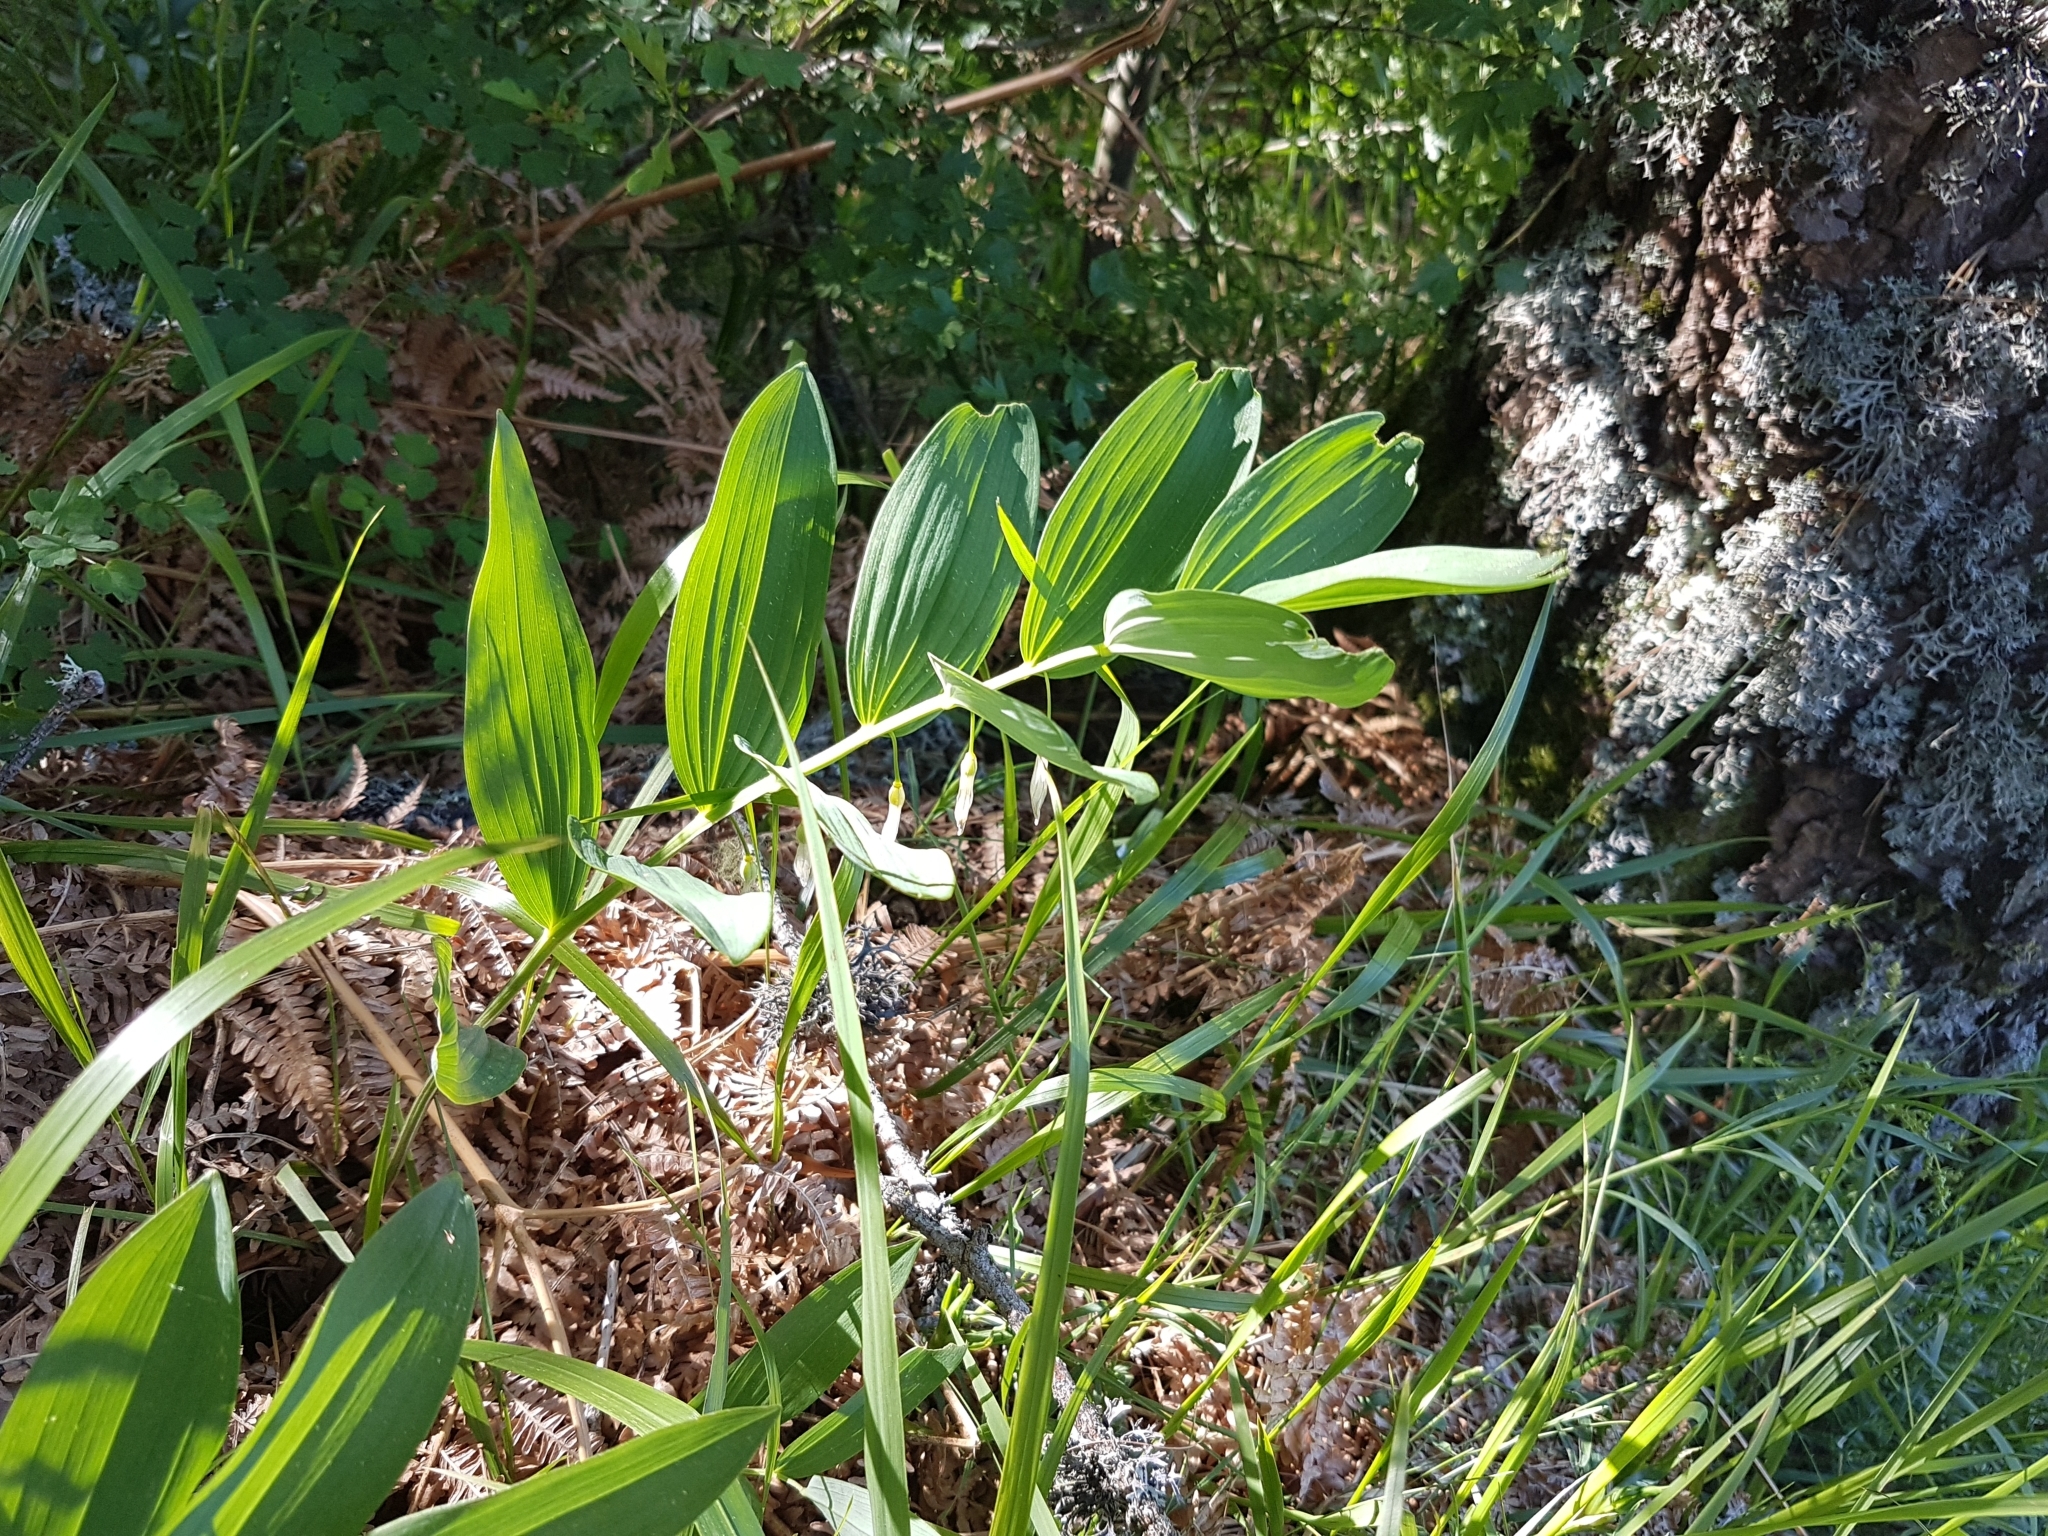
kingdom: Plantae
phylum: Tracheophyta
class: Liliopsida
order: Asparagales
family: Asparagaceae
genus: Polygonatum
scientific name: Polygonatum odoratum
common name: Angular solomon's-seal
